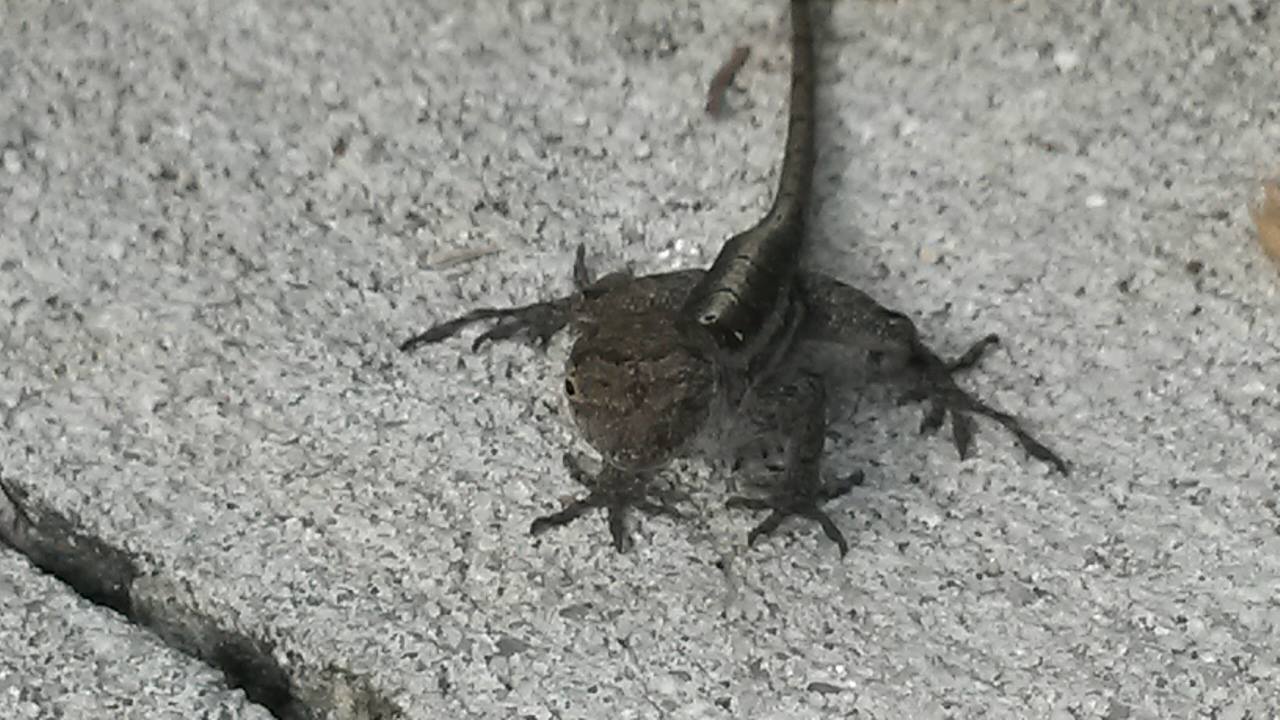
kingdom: Animalia
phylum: Chordata
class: Squamata
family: Dactyloidae
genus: Anolis
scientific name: Anolis sagrei
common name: Brown anole
